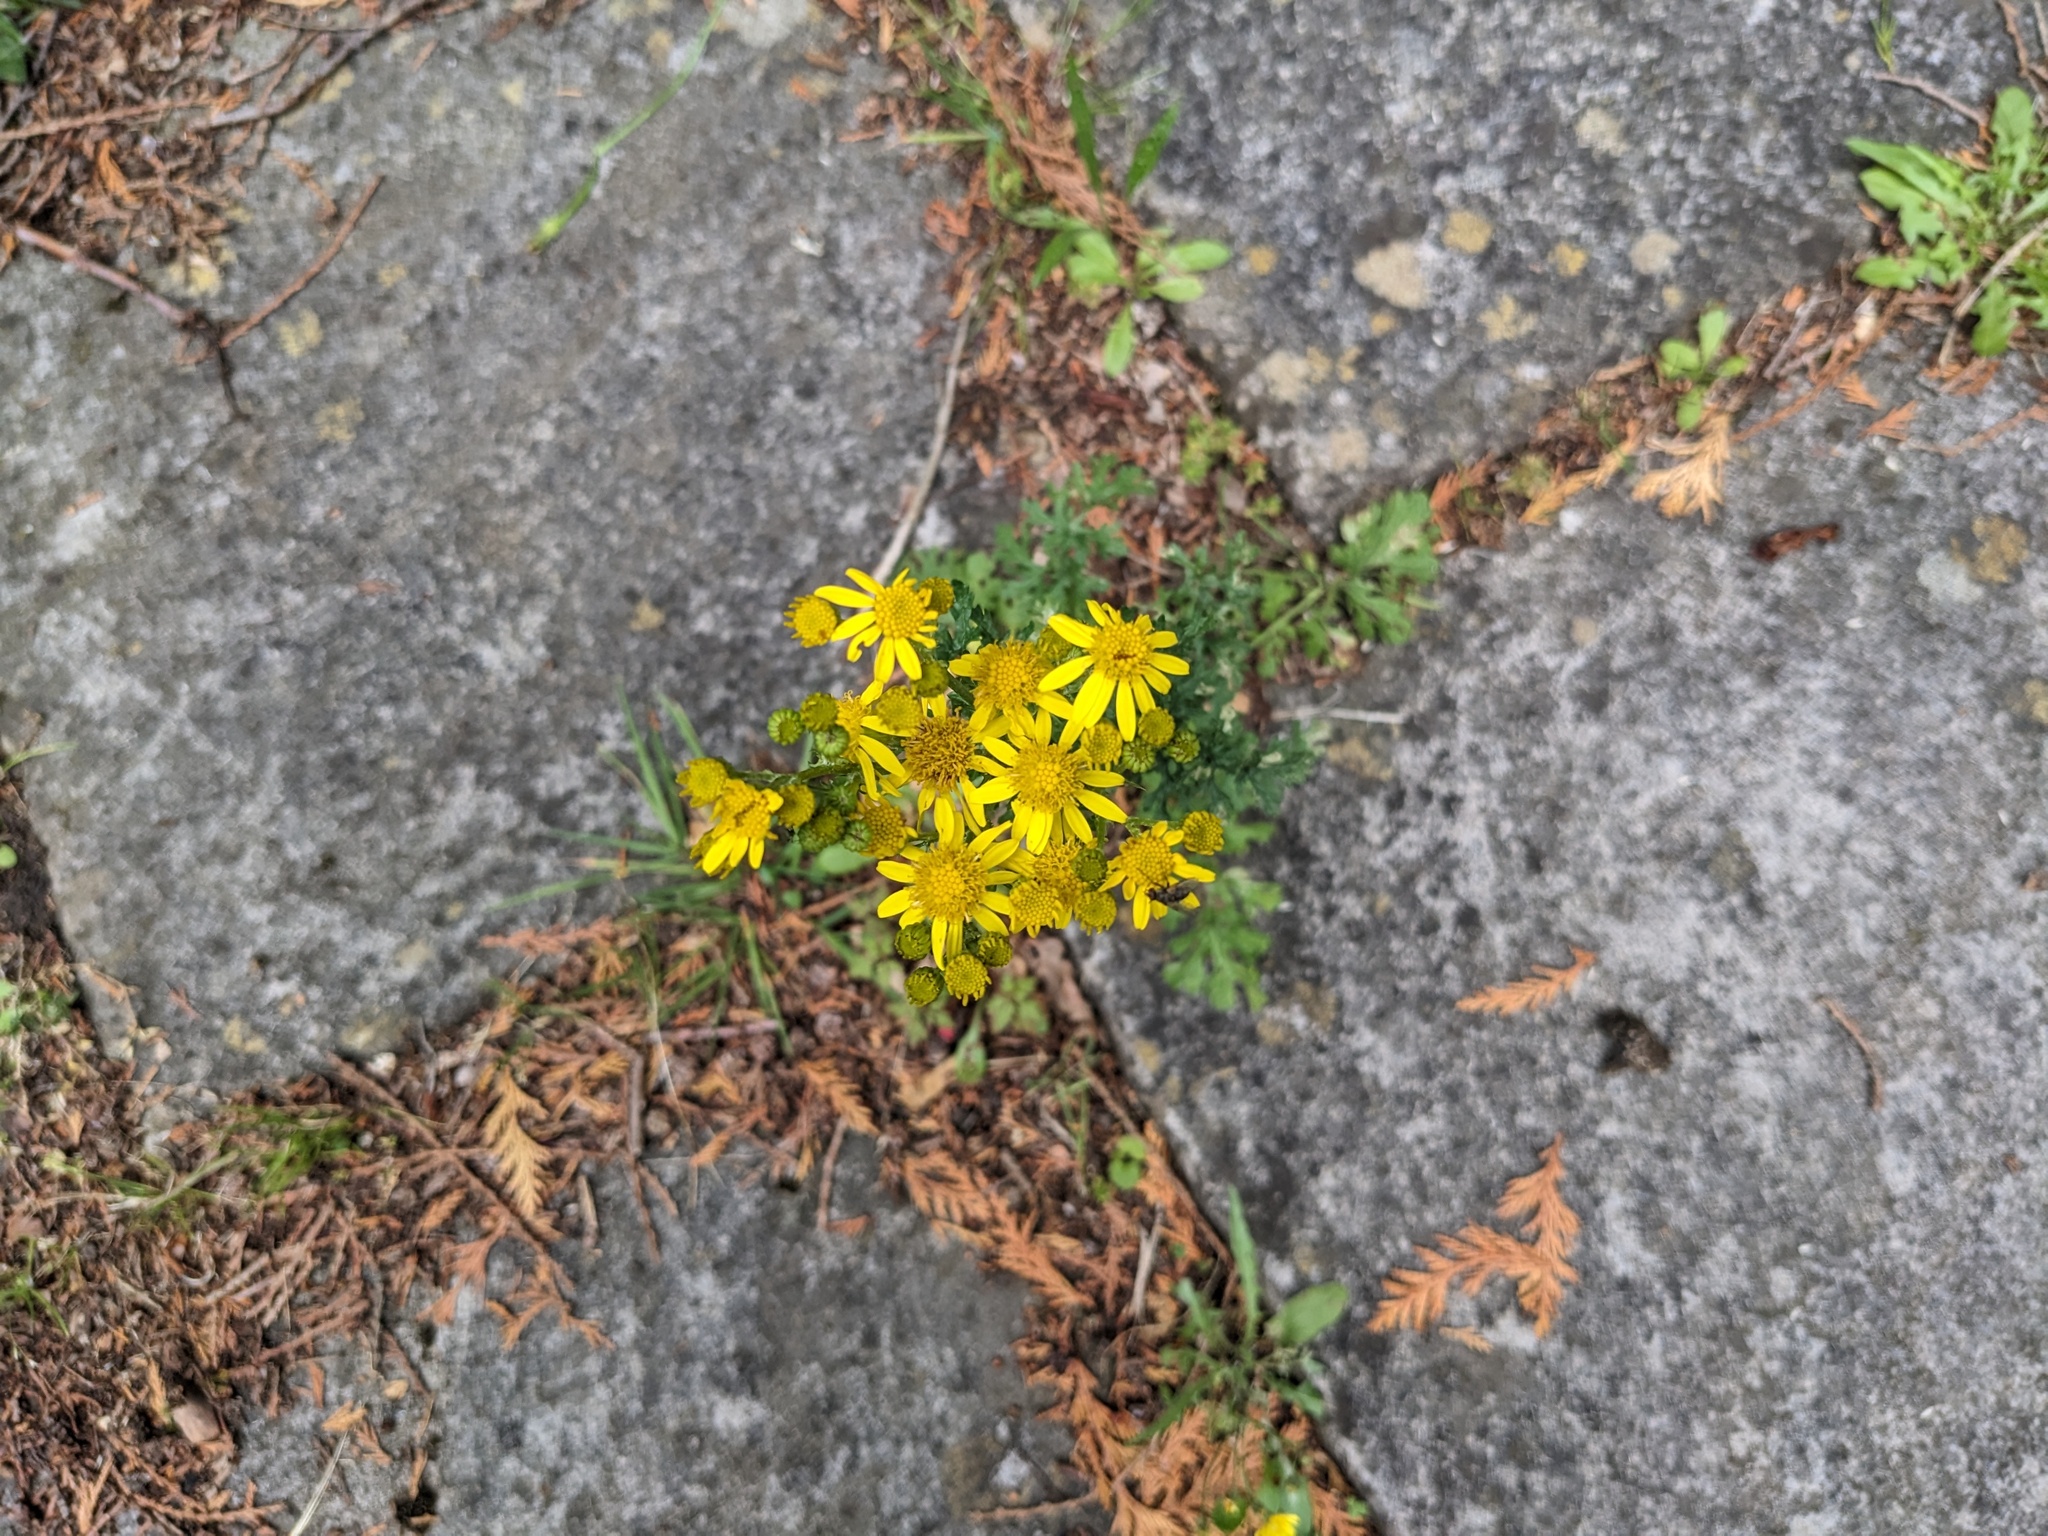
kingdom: Plantae
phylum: Tracheophyta
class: Magnoliopsida
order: Asterales
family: Asteraceae
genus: Jacobaea
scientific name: Jacobaea vulgaris
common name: Stinking willie
